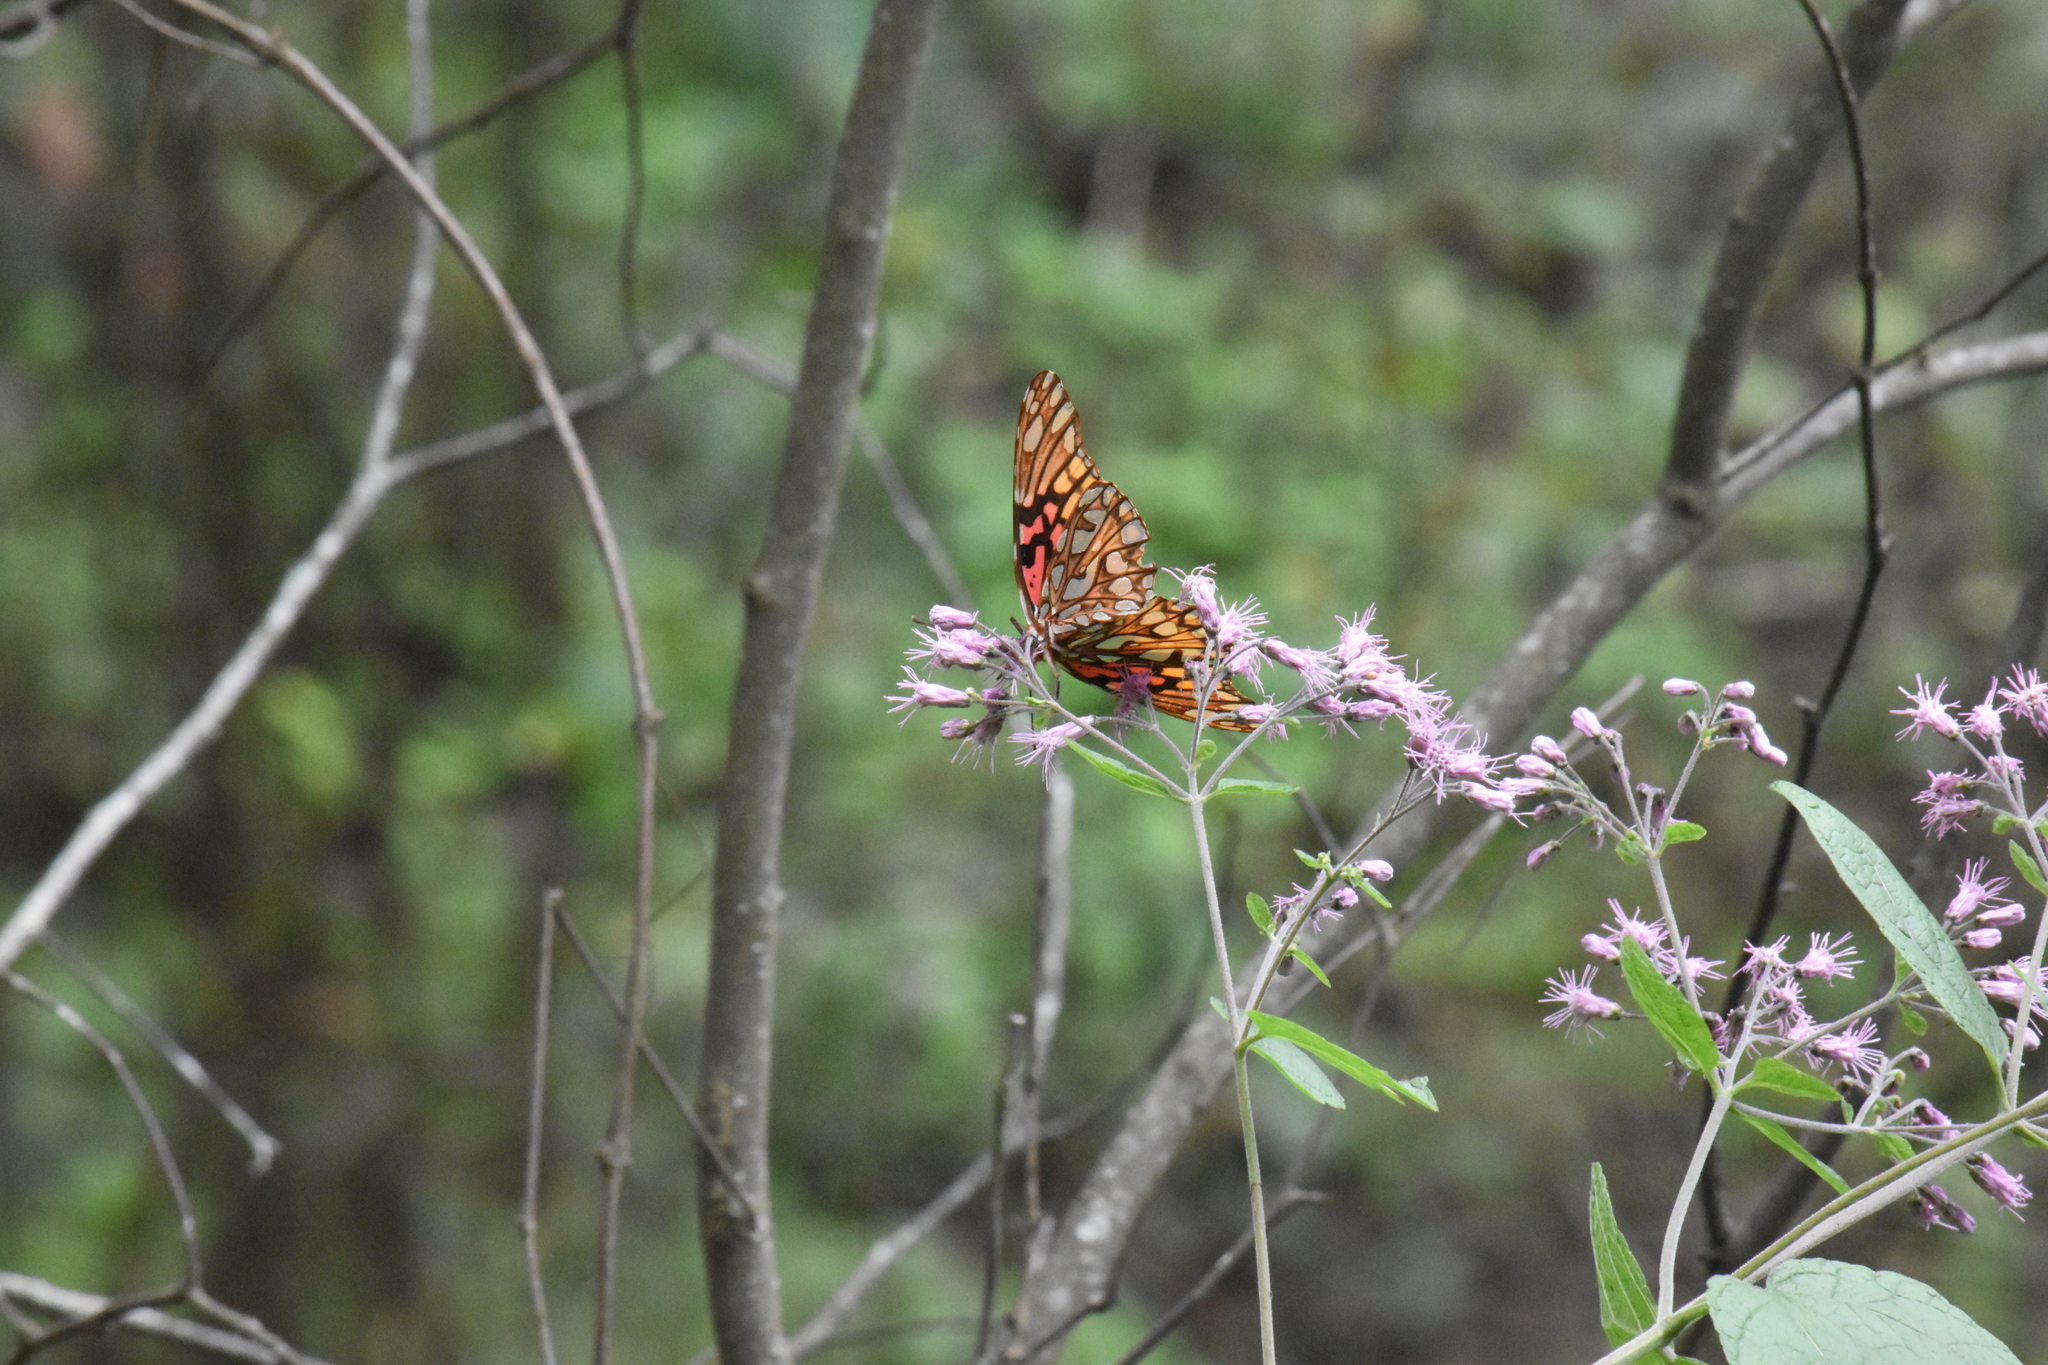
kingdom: Animalia
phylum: Arthropoda
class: Insecta
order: Lepidoptera
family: Nymphalidae
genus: Dione
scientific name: Dione moneta
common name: Mexican silverspot
